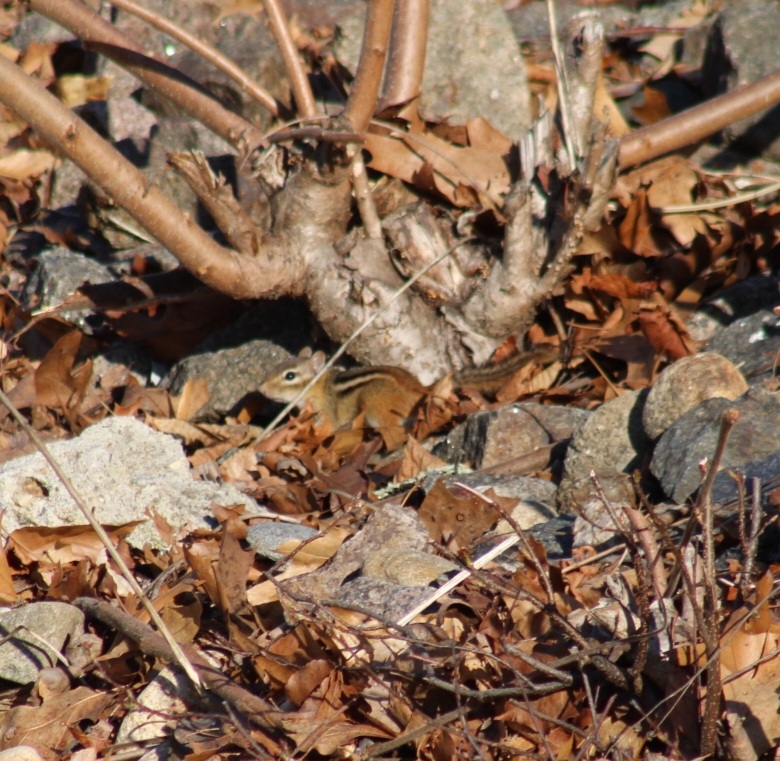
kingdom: Animalia
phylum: Chordata
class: Mammalia
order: Rodentia
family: Sciuridae
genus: Tamias
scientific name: Tamias striatus
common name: Eastern chipmunk
